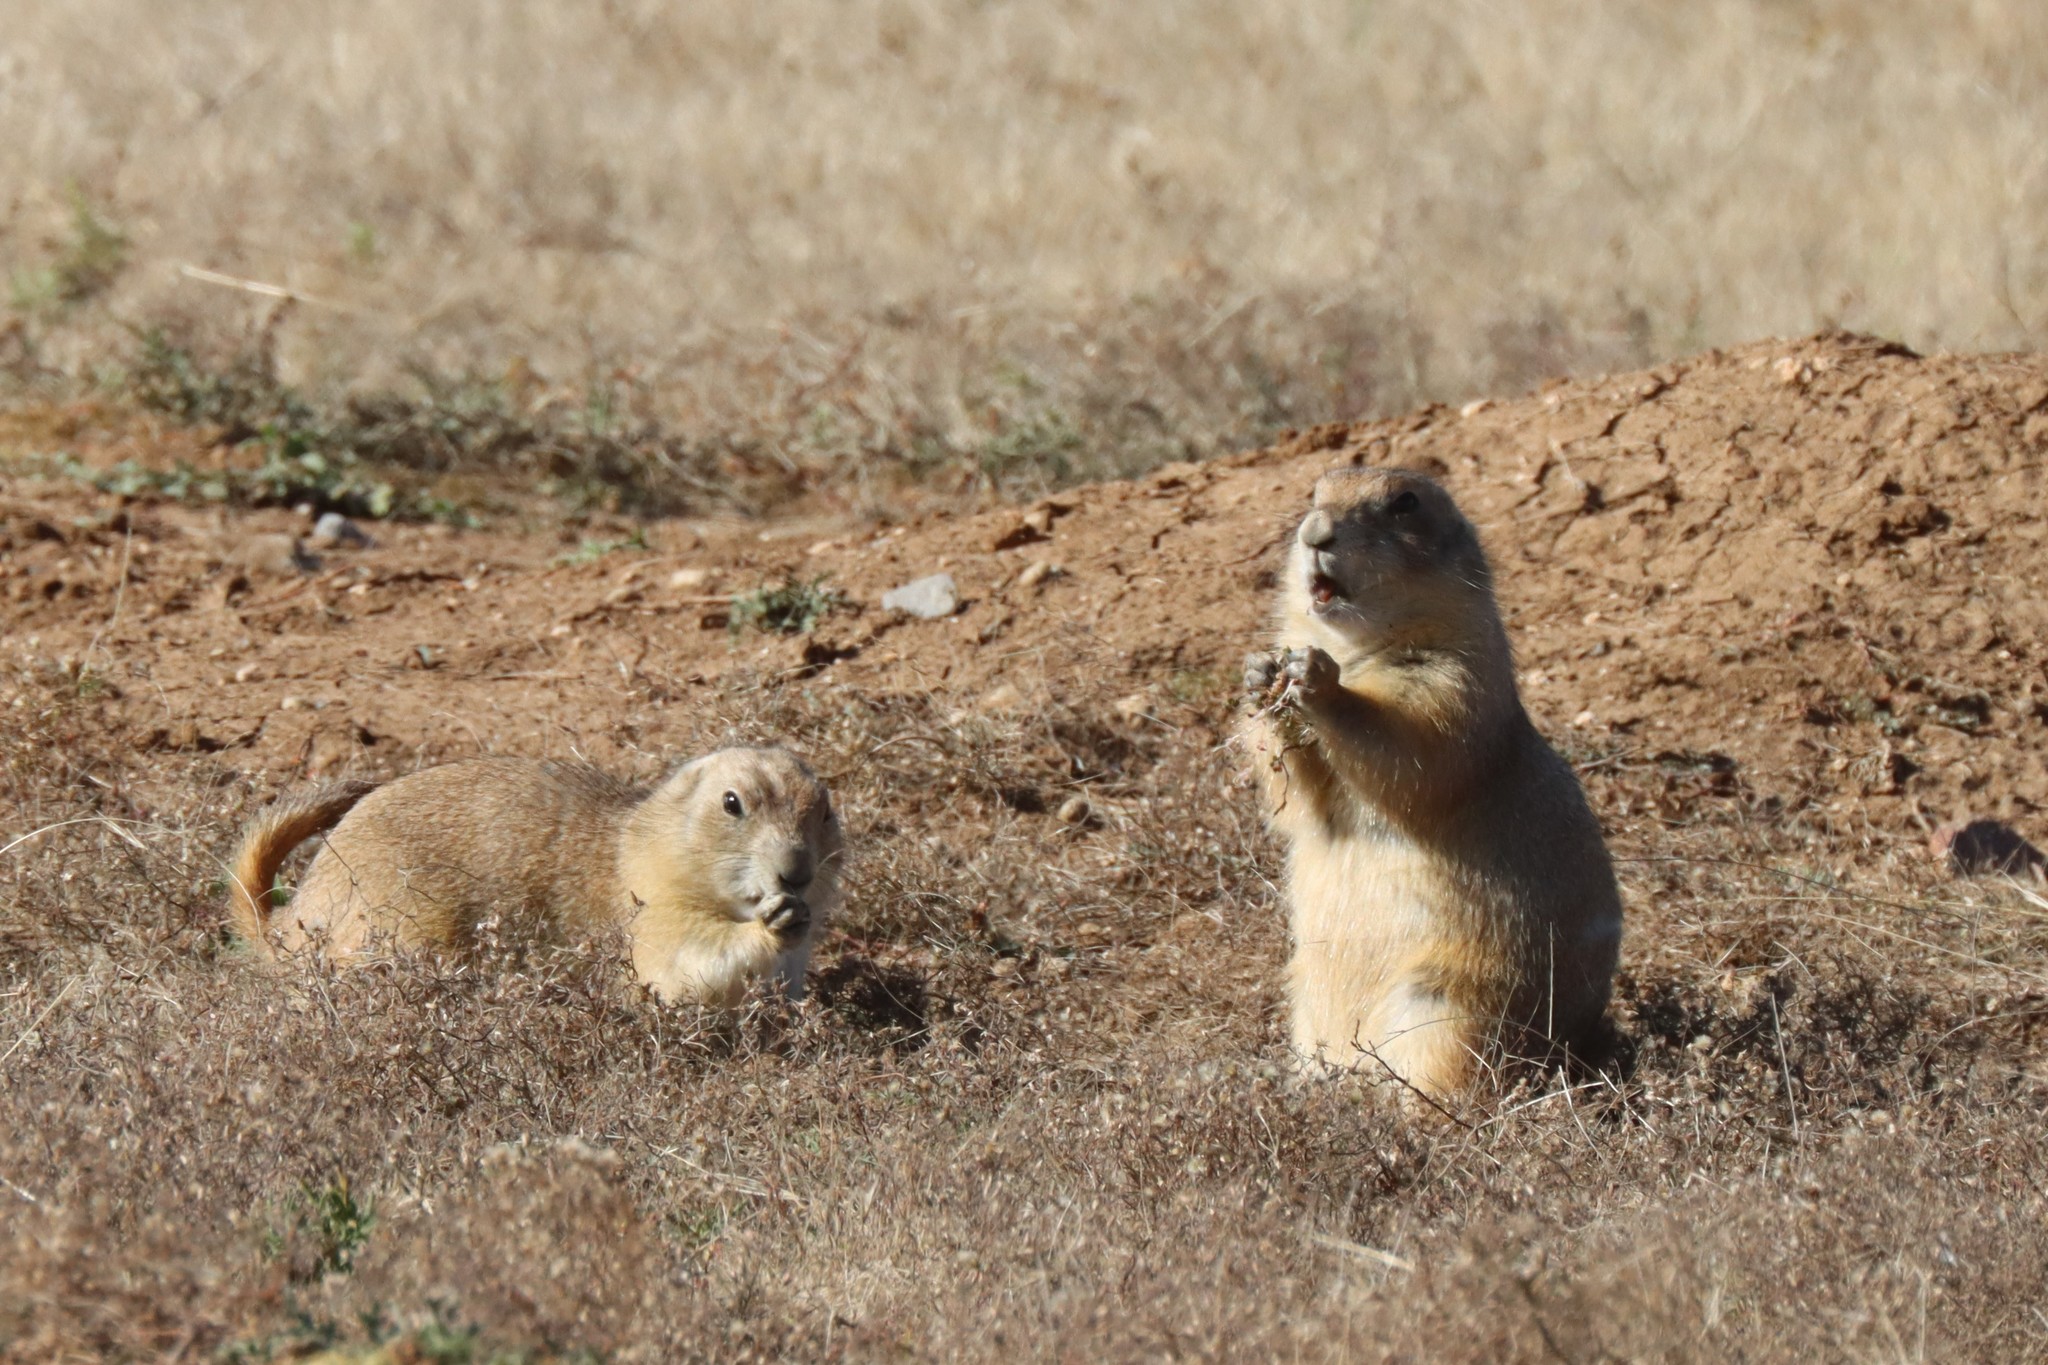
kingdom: Animalia
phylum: Chordata
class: Mammalia
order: Rodentia
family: Sciuridae
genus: Cynomys
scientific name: Cynomys ludovicianus
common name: Black-tailed prairie dog
